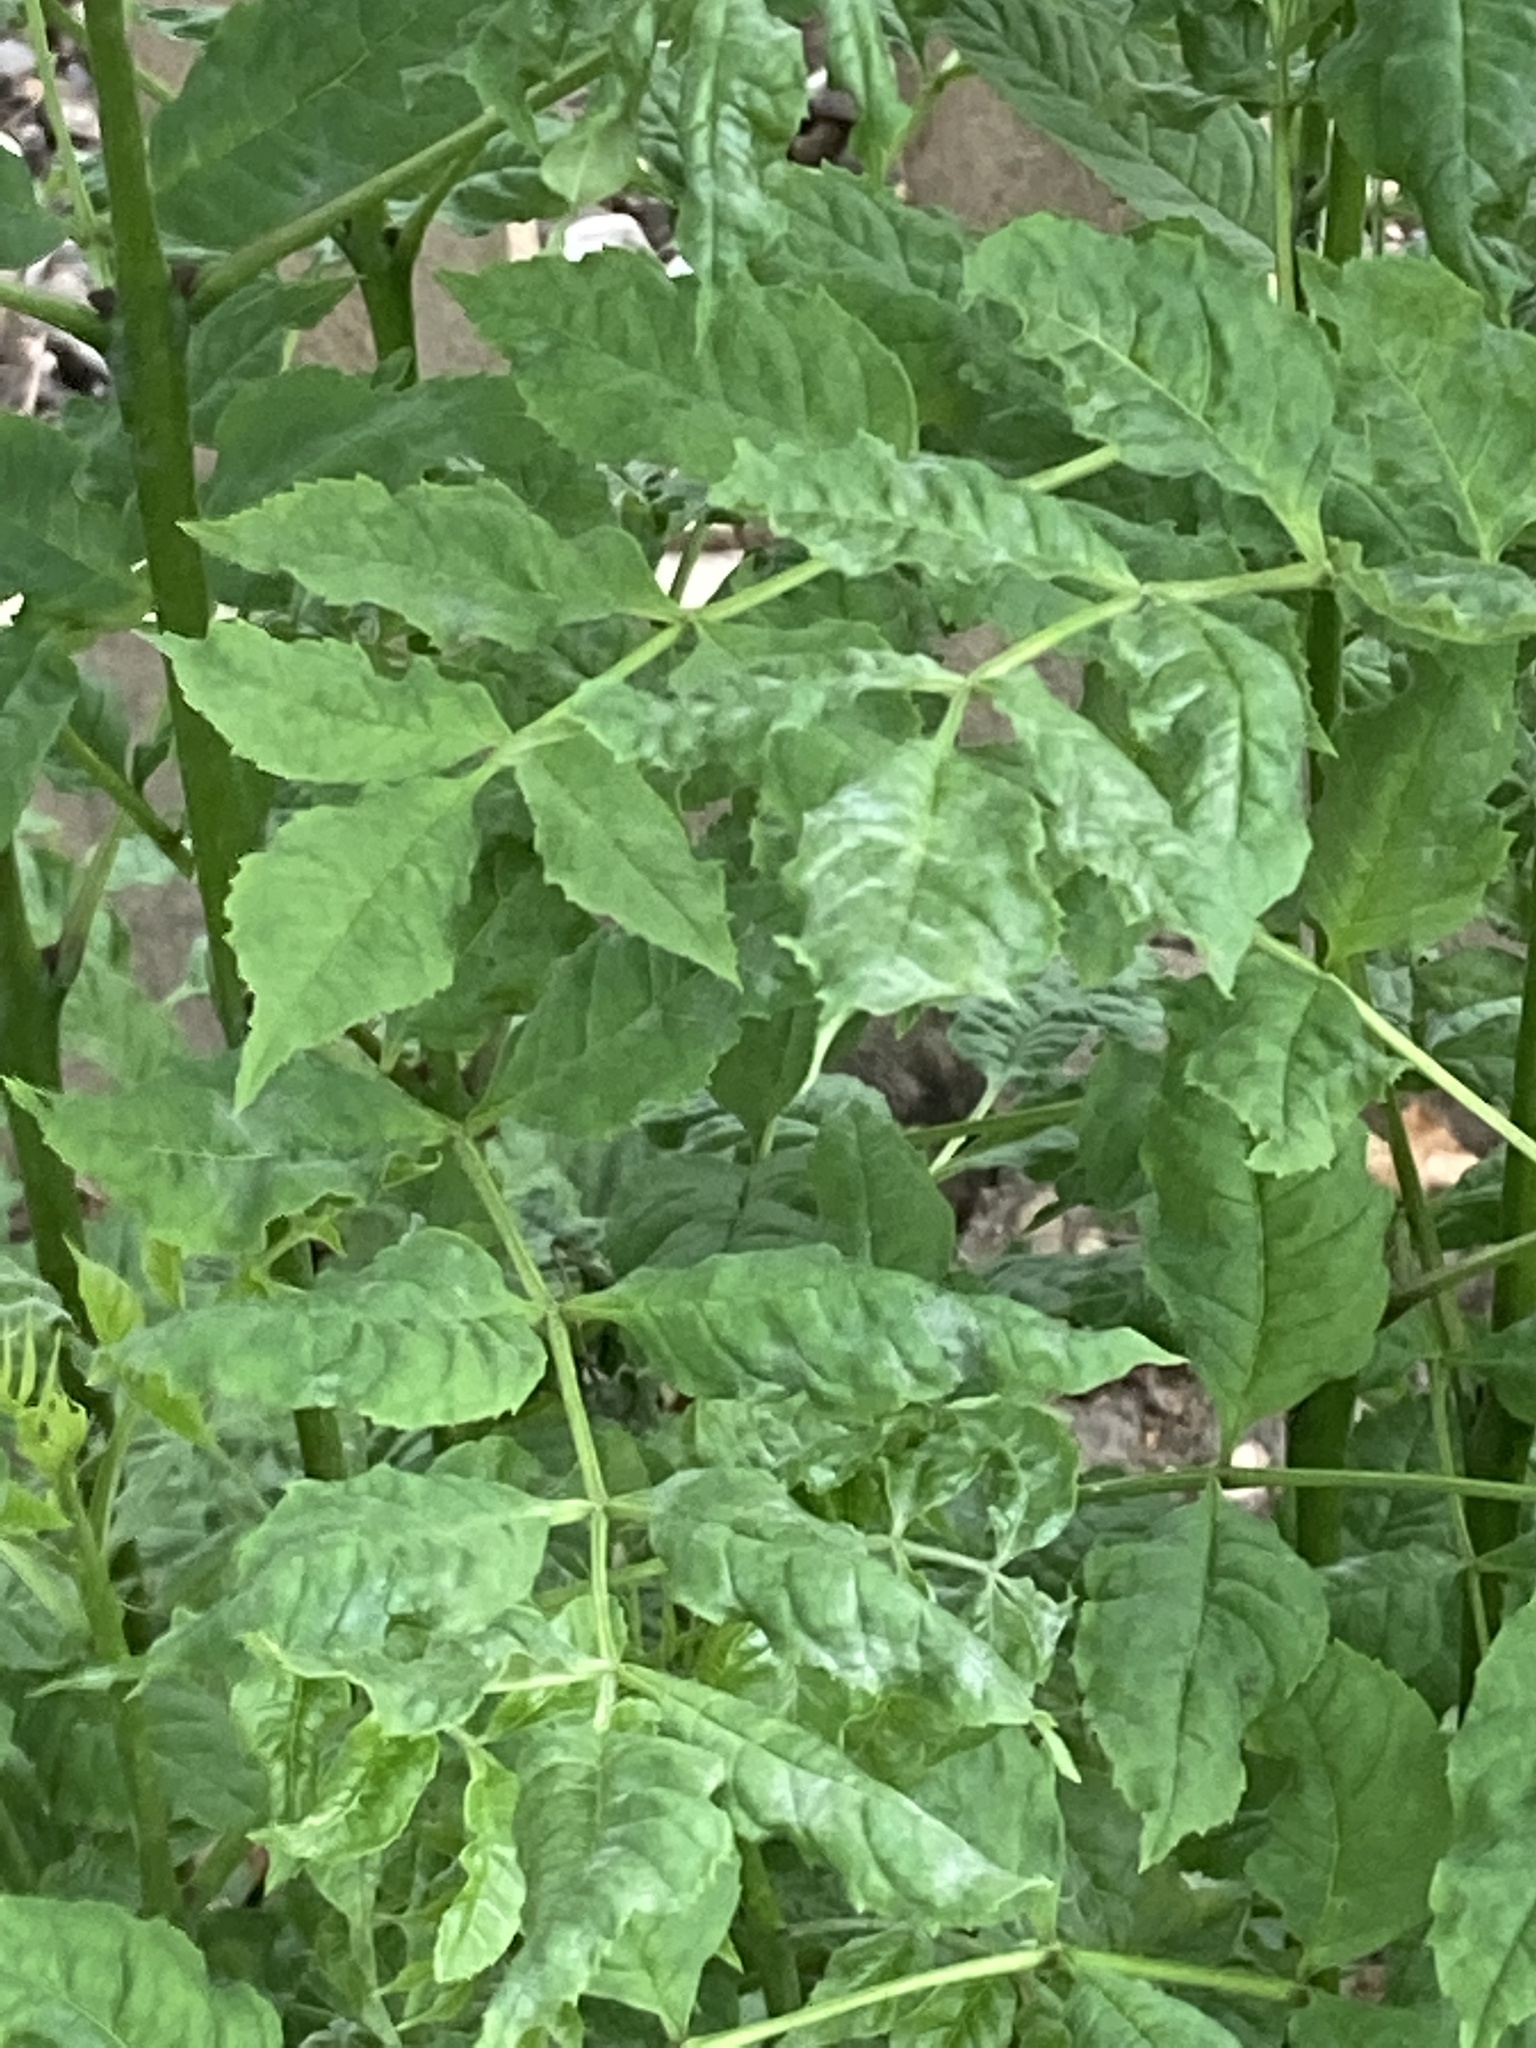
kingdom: Plantae
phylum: Tracheophyta
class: Magnoliopsida
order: Lamiales
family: Oleaceae
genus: Fraxinus
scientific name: Fraxinus excelsior
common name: European ash
